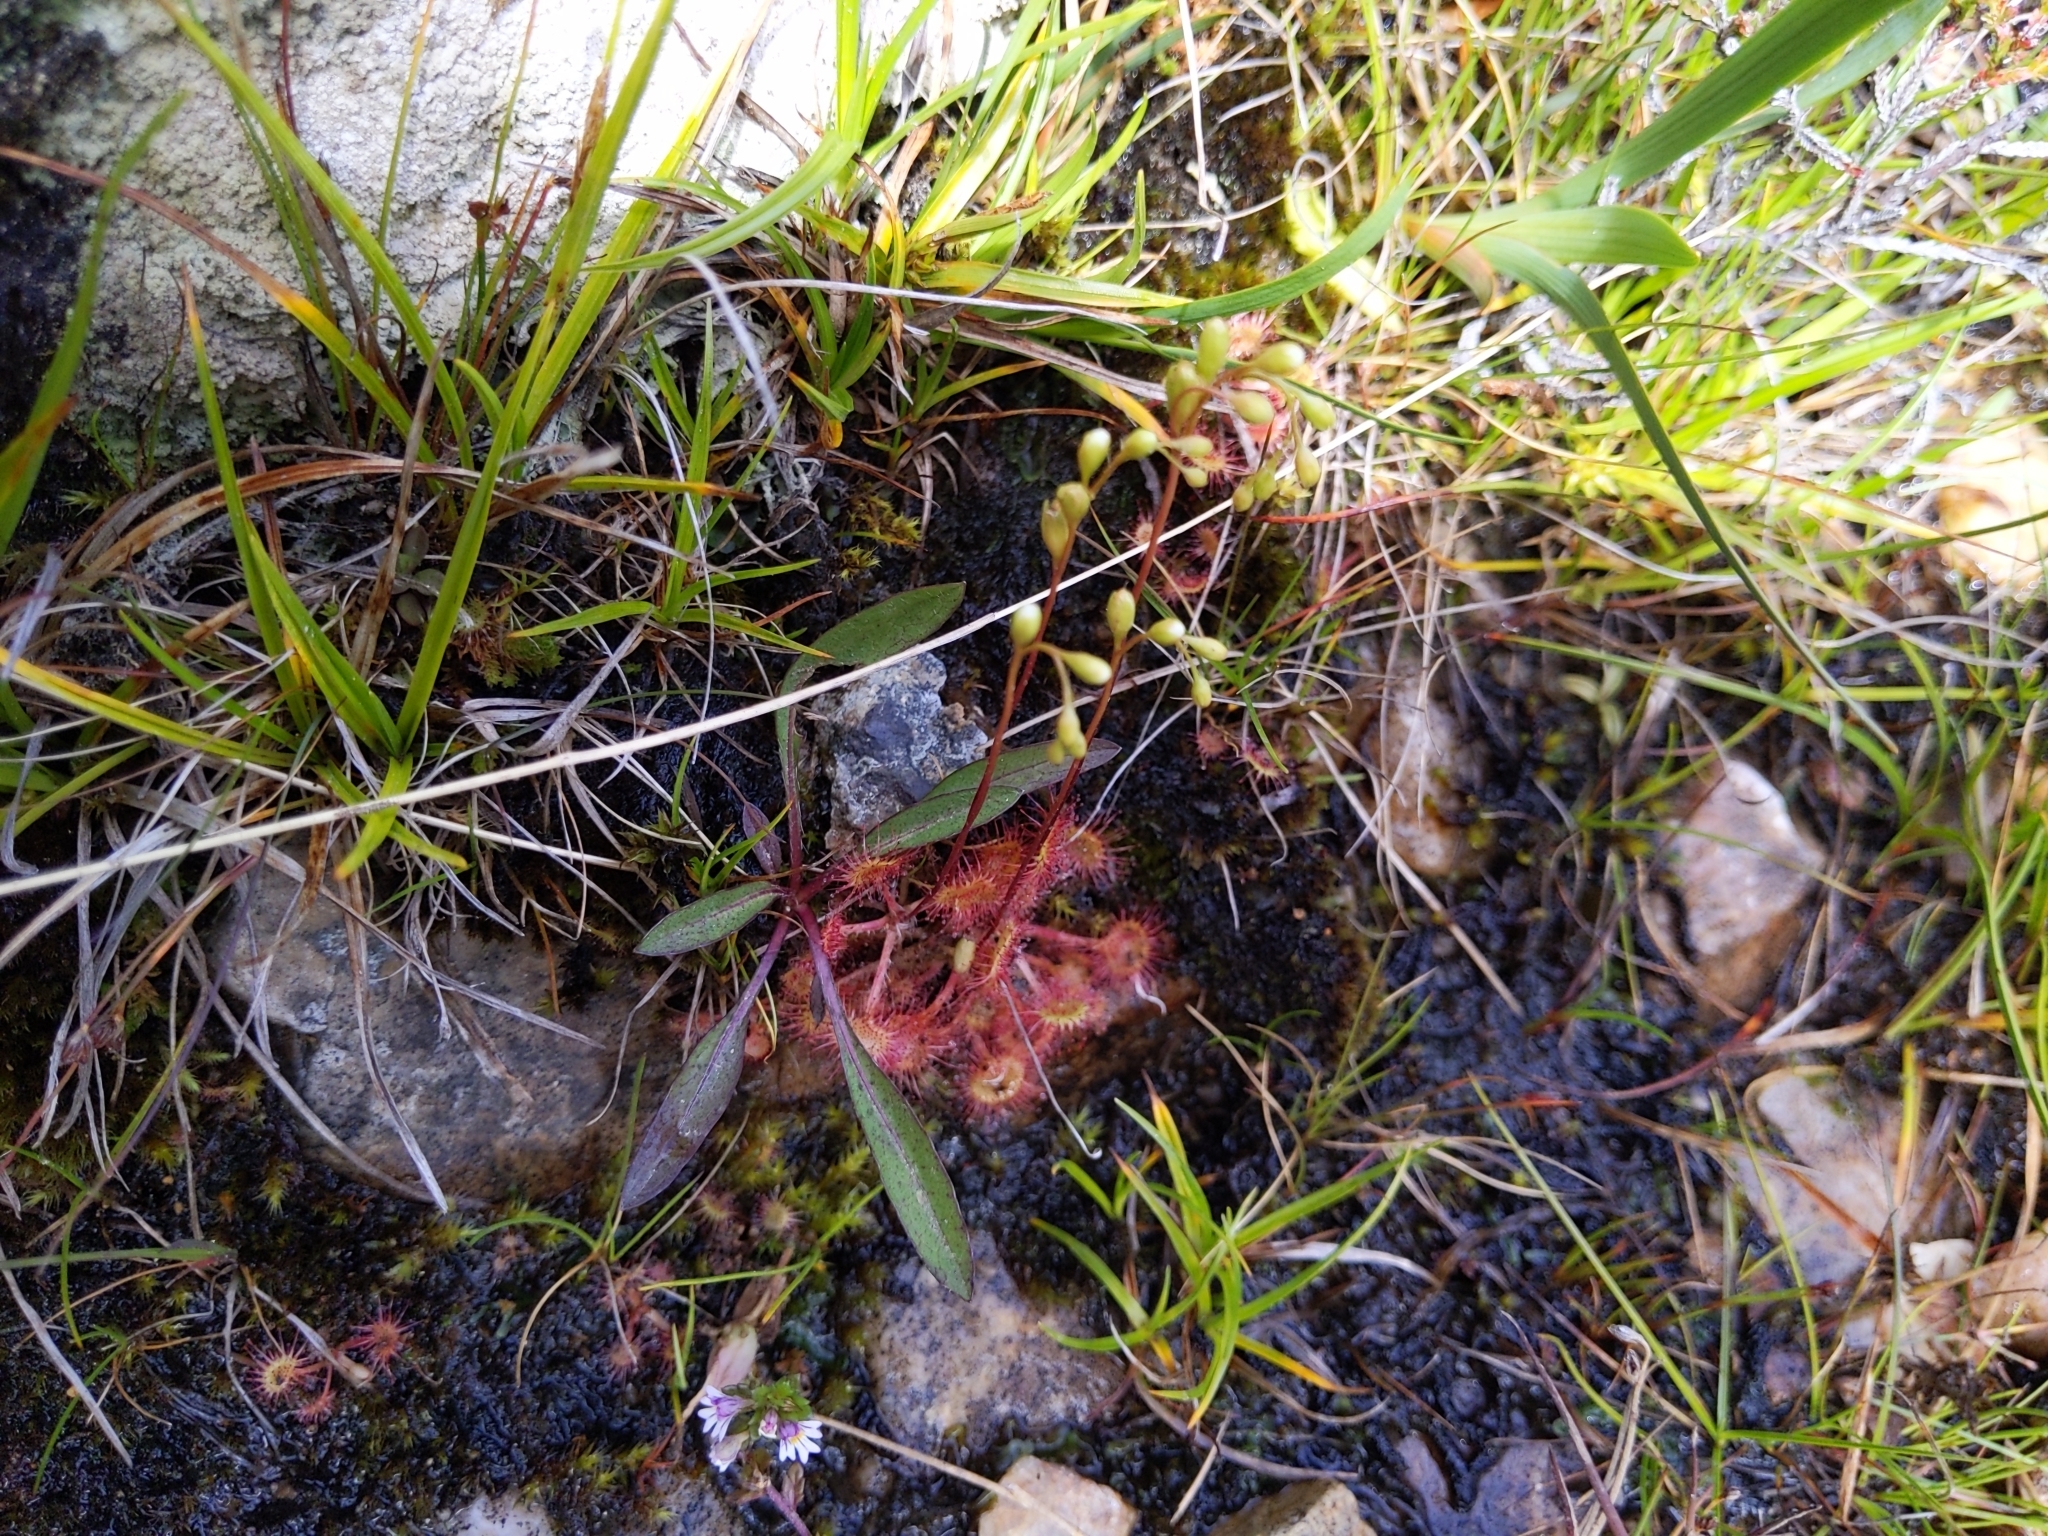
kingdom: Plantae
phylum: Tracheophyta
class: Magnoliopsida
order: Caryophyllales
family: Droseraceae
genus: Drosera
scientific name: Drosera rotundifolia
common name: Round-leaved sundew
